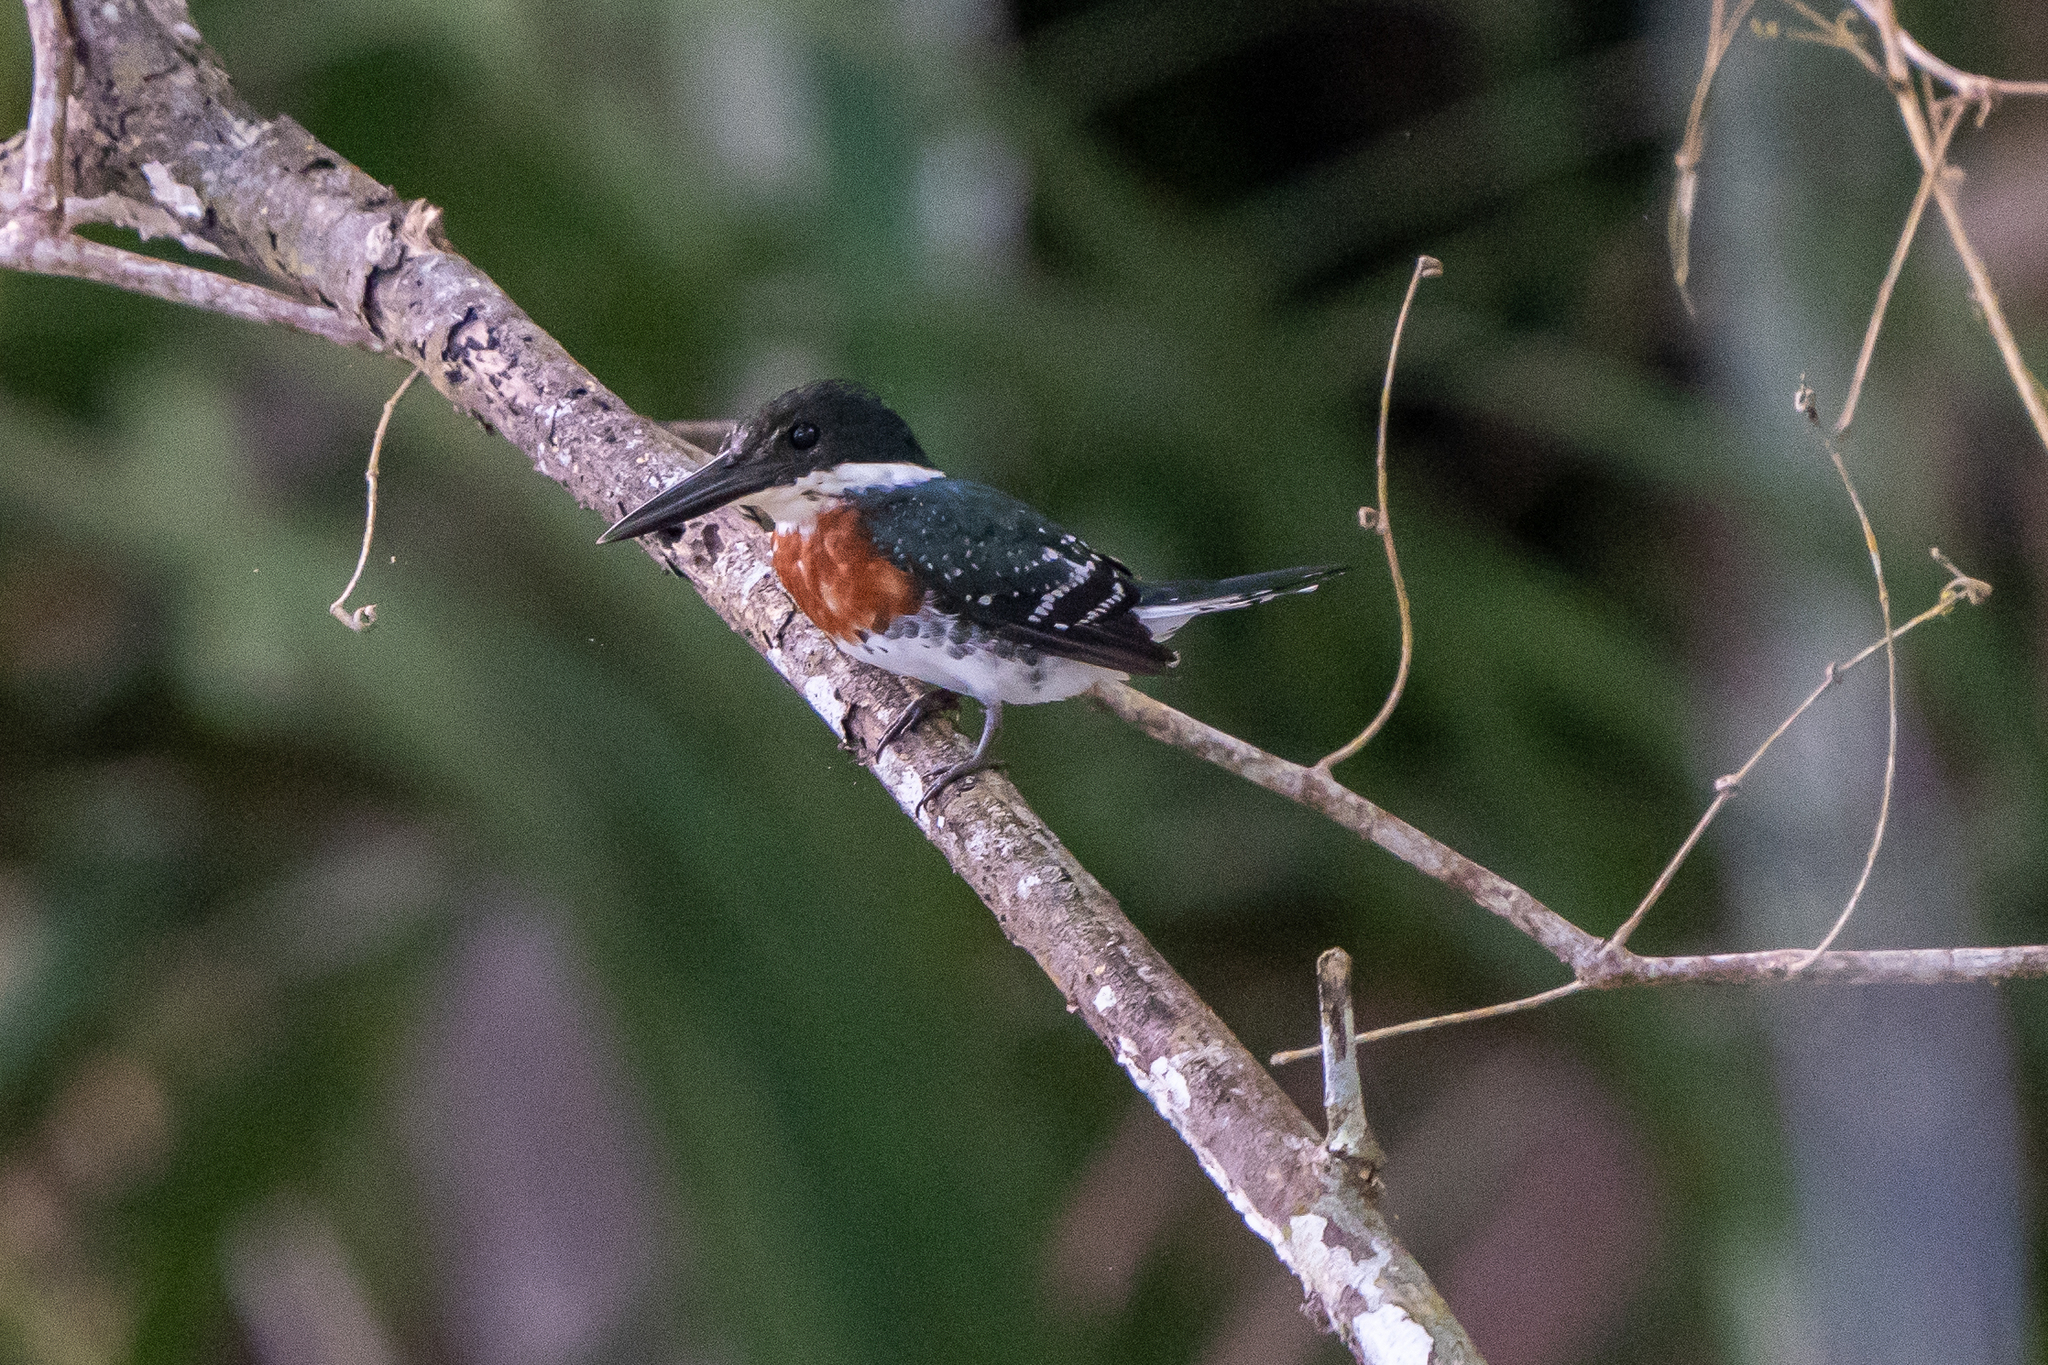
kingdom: Animalia
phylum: Chordata
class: Aves
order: Coraciiformes
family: Alcedinidae
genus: Chloroceryle
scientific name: Chloroceryle americana
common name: Green kingfisher
